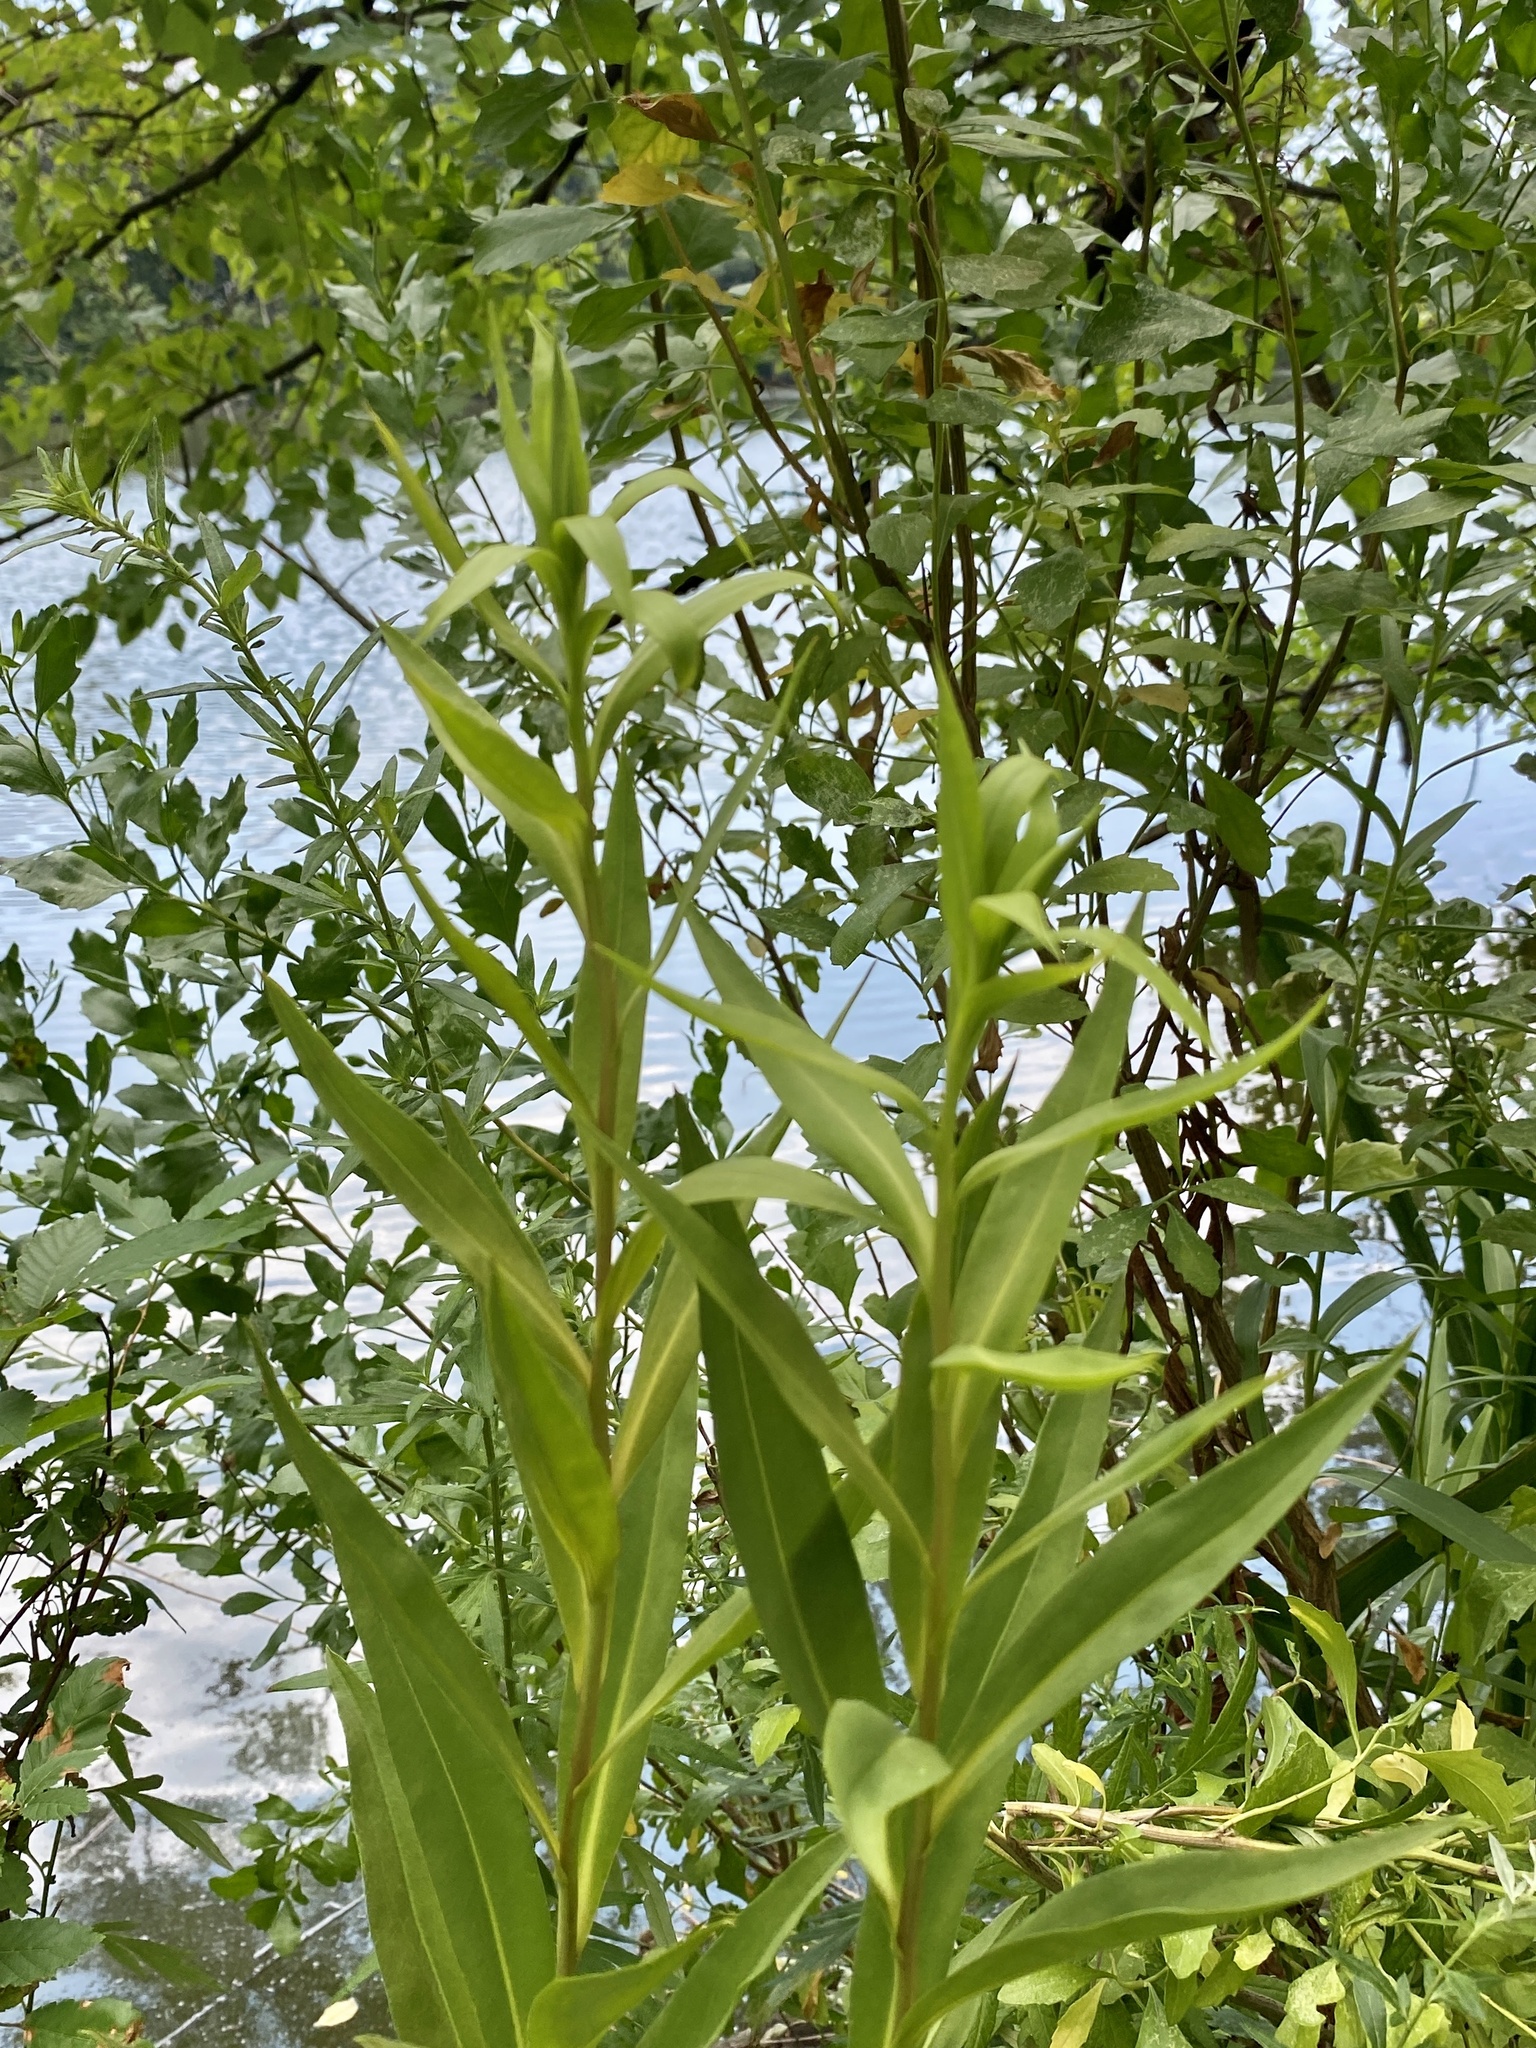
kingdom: Plantae
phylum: Tracheophyta
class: Magnoliopsida
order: Asterales
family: Asteraceae
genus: Solidago
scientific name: Solidago sempervirens
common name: Salt-marsh goldenrod
